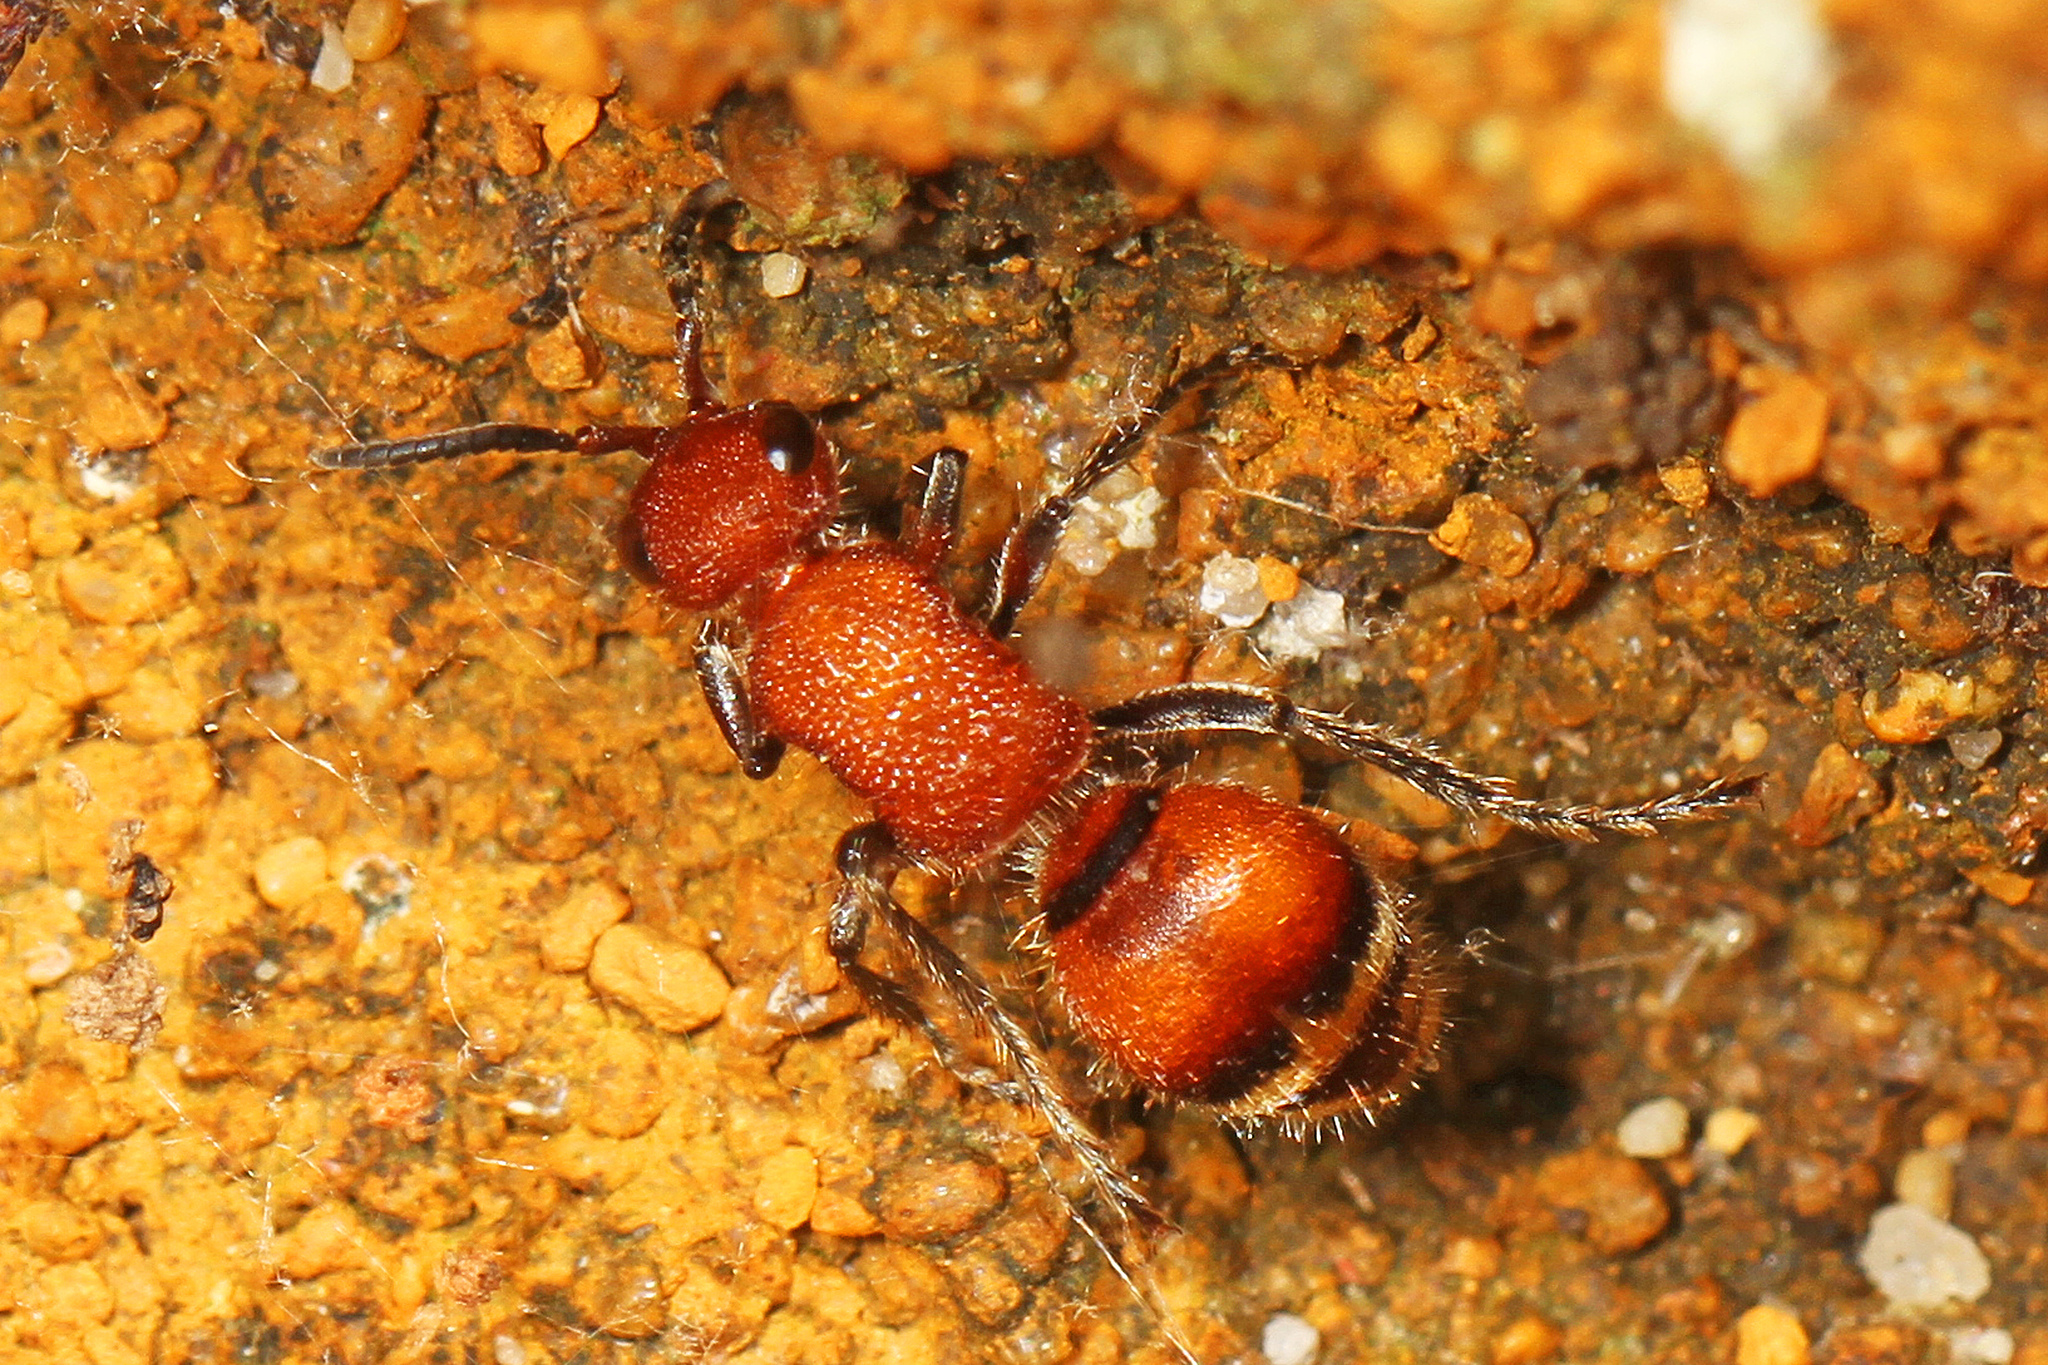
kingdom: Animalia
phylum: Arthropoda
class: Insecta
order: Hymenoptera
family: Mutillidae
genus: Timulla
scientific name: Timulla
